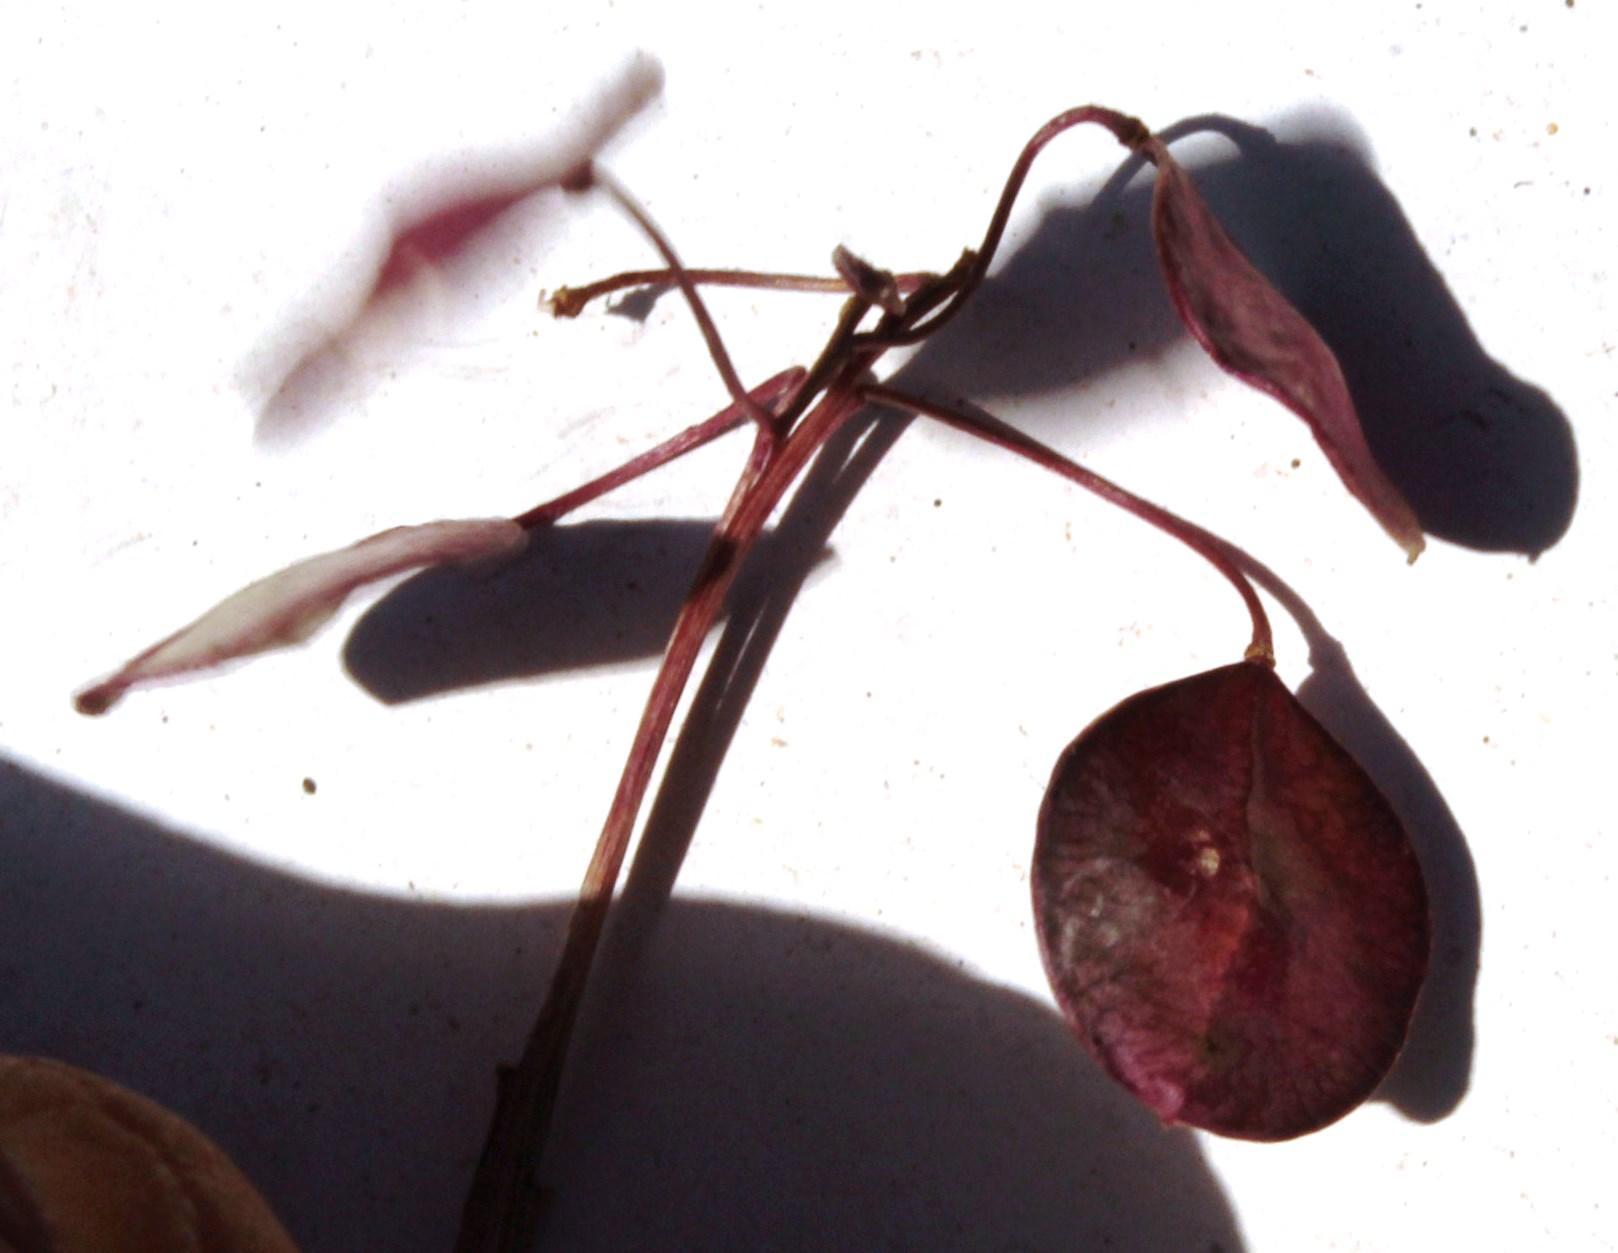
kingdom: Plantae
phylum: Tracheophyta
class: Magnoliopsida
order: Brassicales
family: Brassicaceae
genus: Heliophila
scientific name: Heliophila suborbicularis
